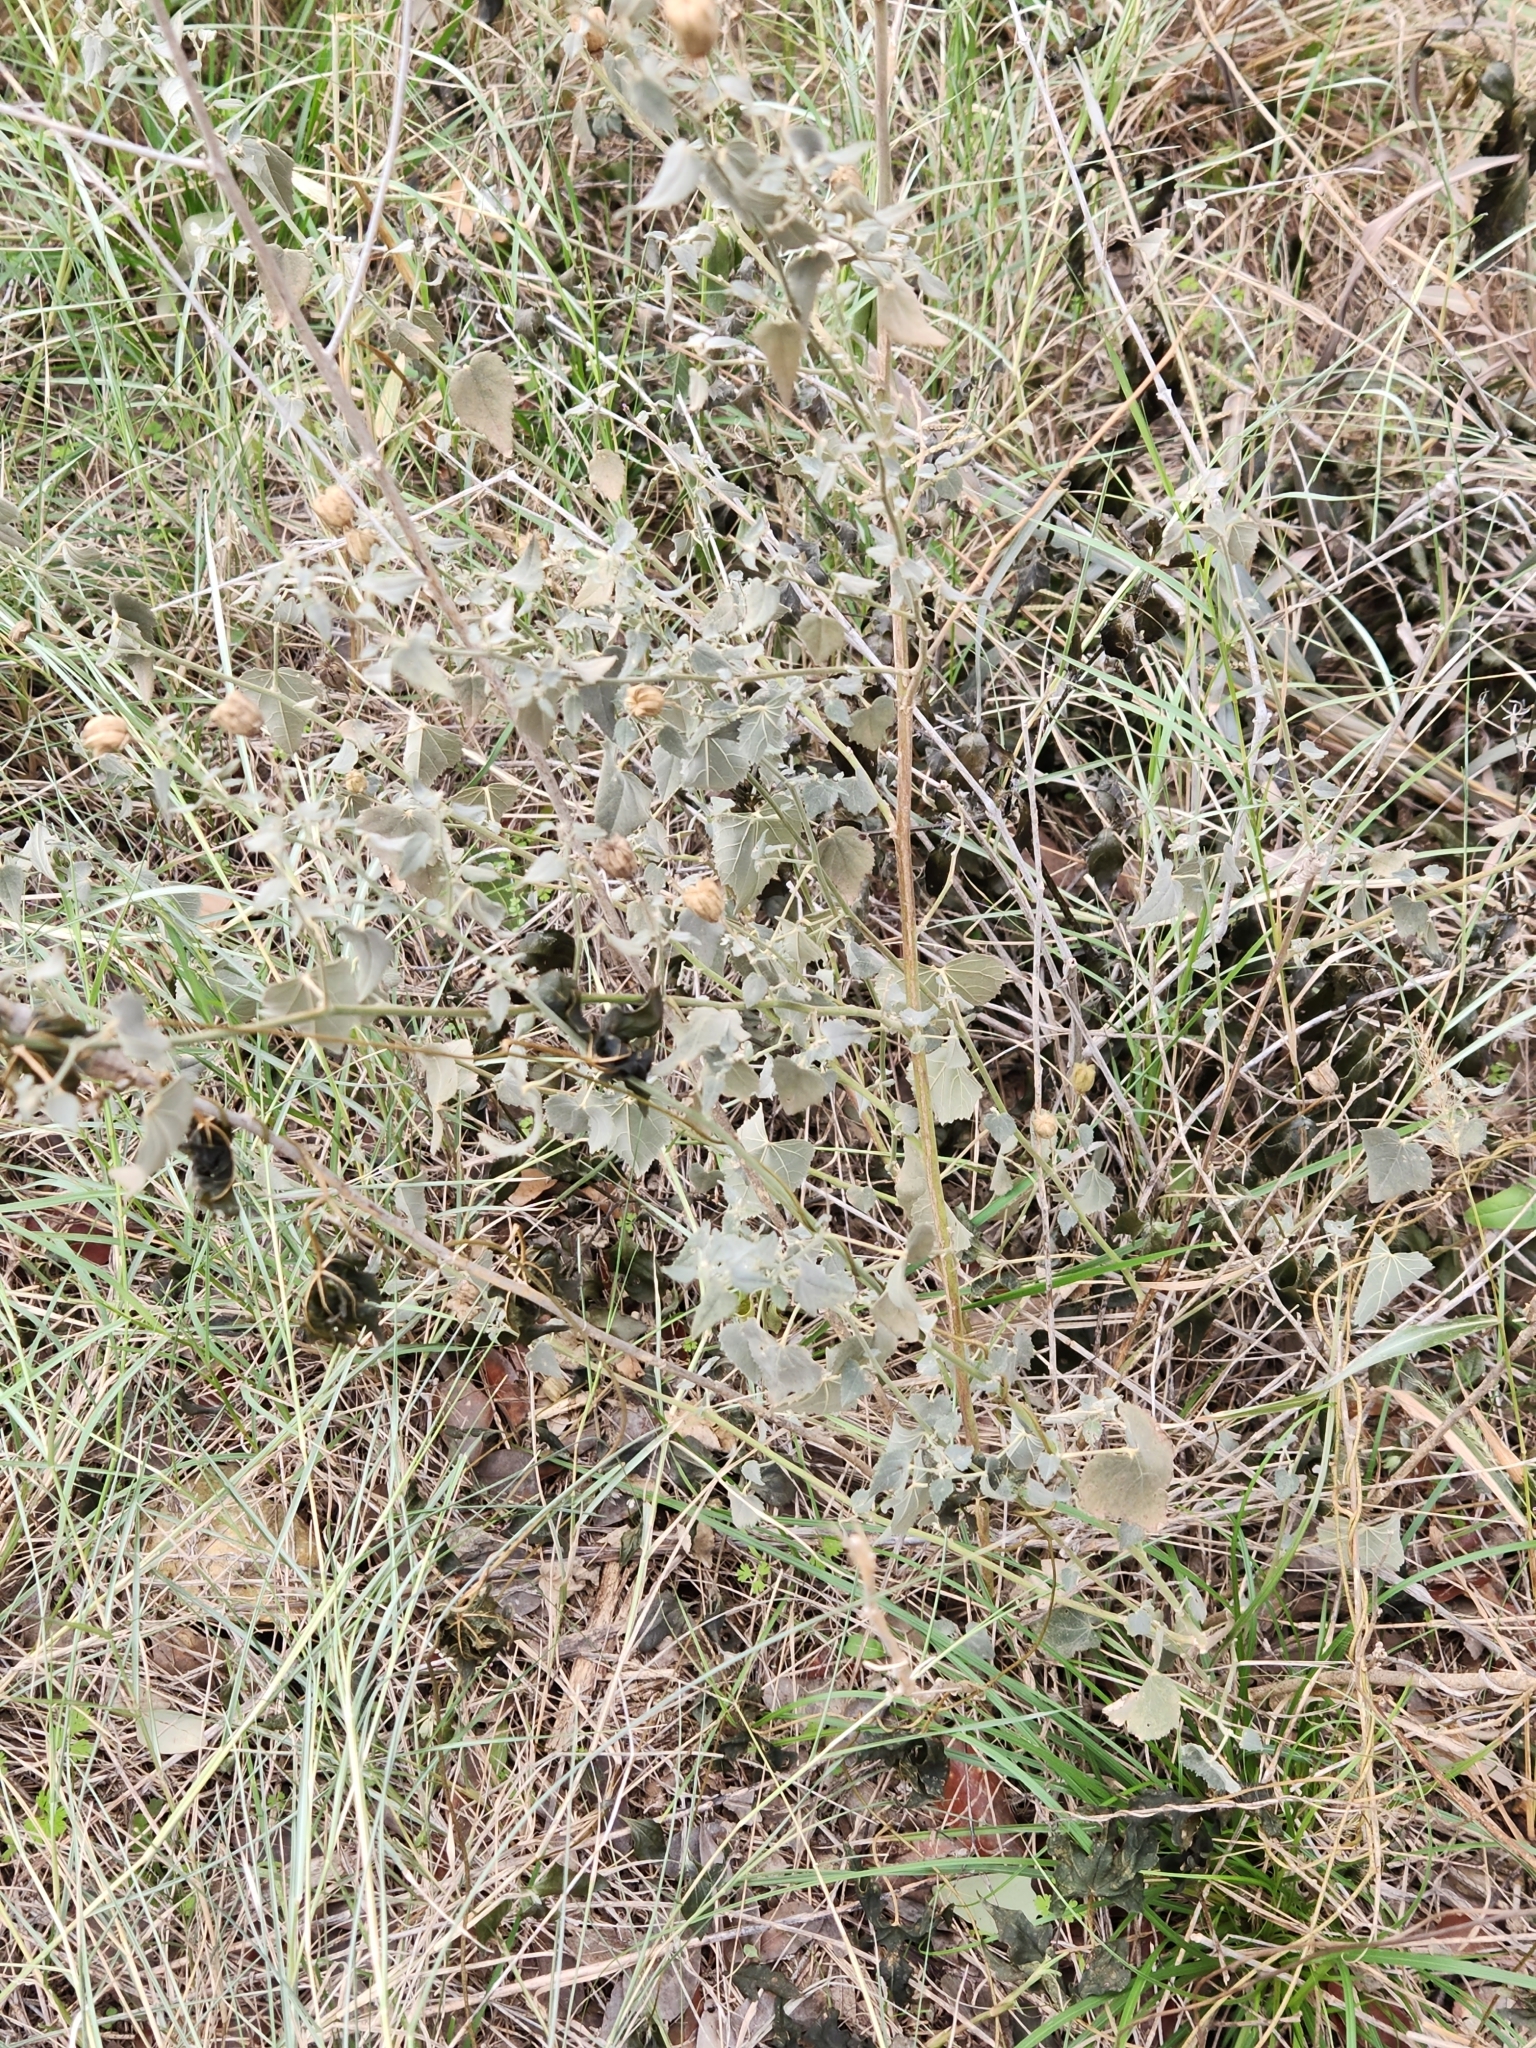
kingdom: Plantae
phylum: Tracheophyta
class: Magnoliopsida
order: Malvales
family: Malvaceae
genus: Abutilon
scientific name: Abutilon fruticosum
